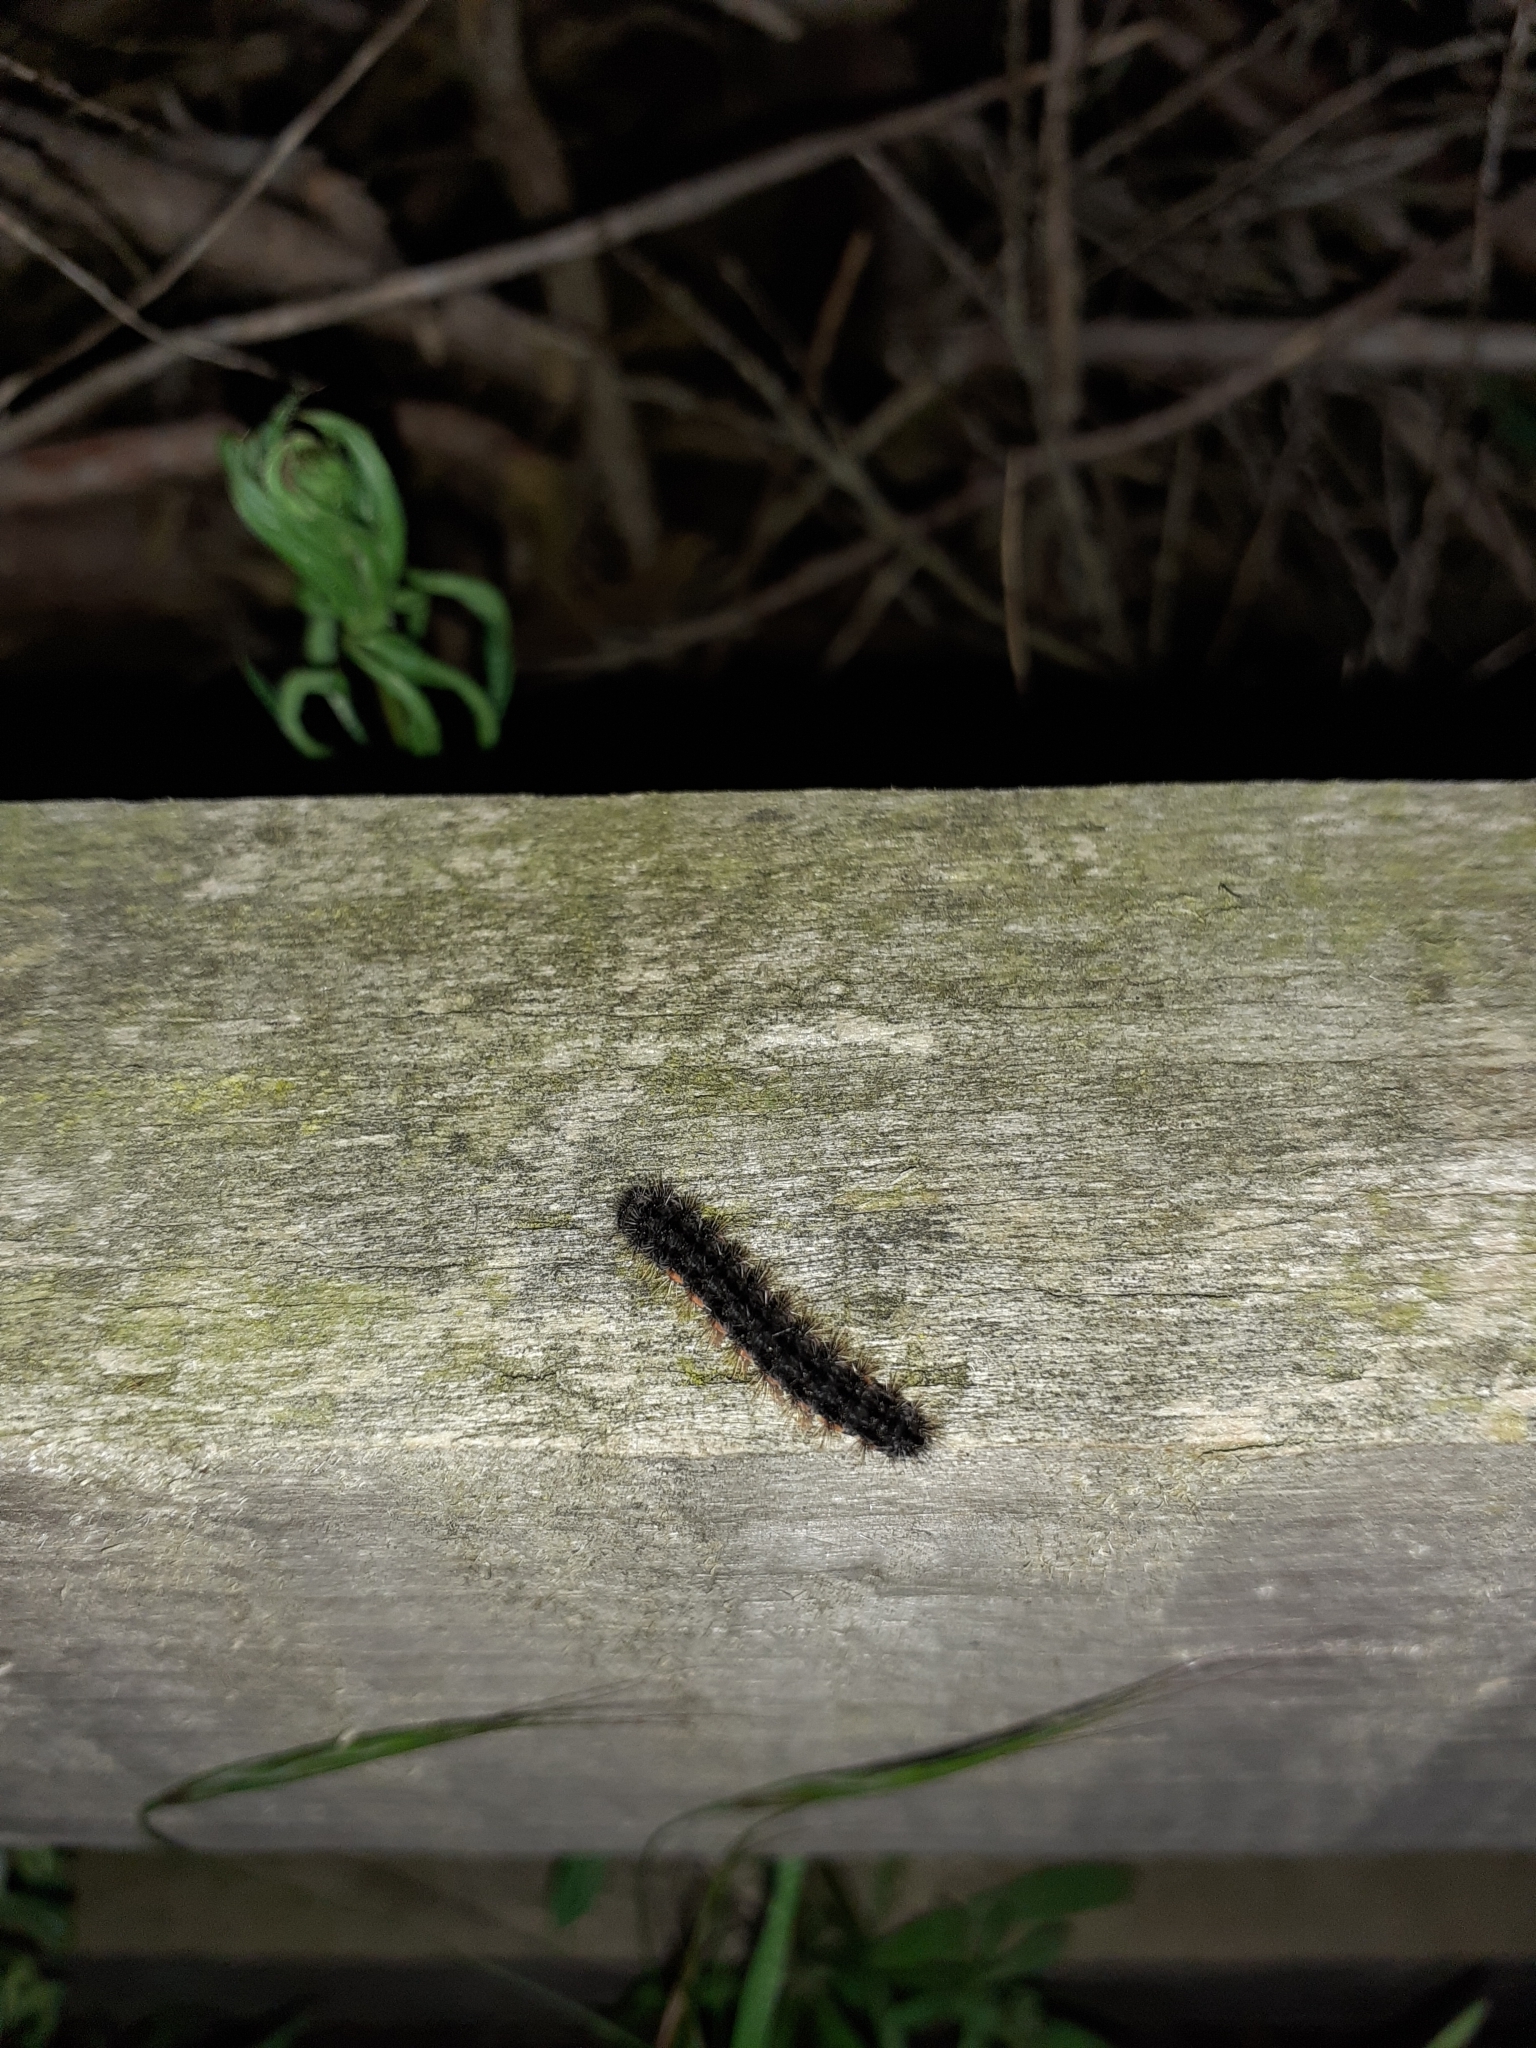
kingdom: Animalia
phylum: Arthropoda
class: Insecta
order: Lepidoptera
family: Erebidae
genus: Nyea
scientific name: Nyea lurideola
